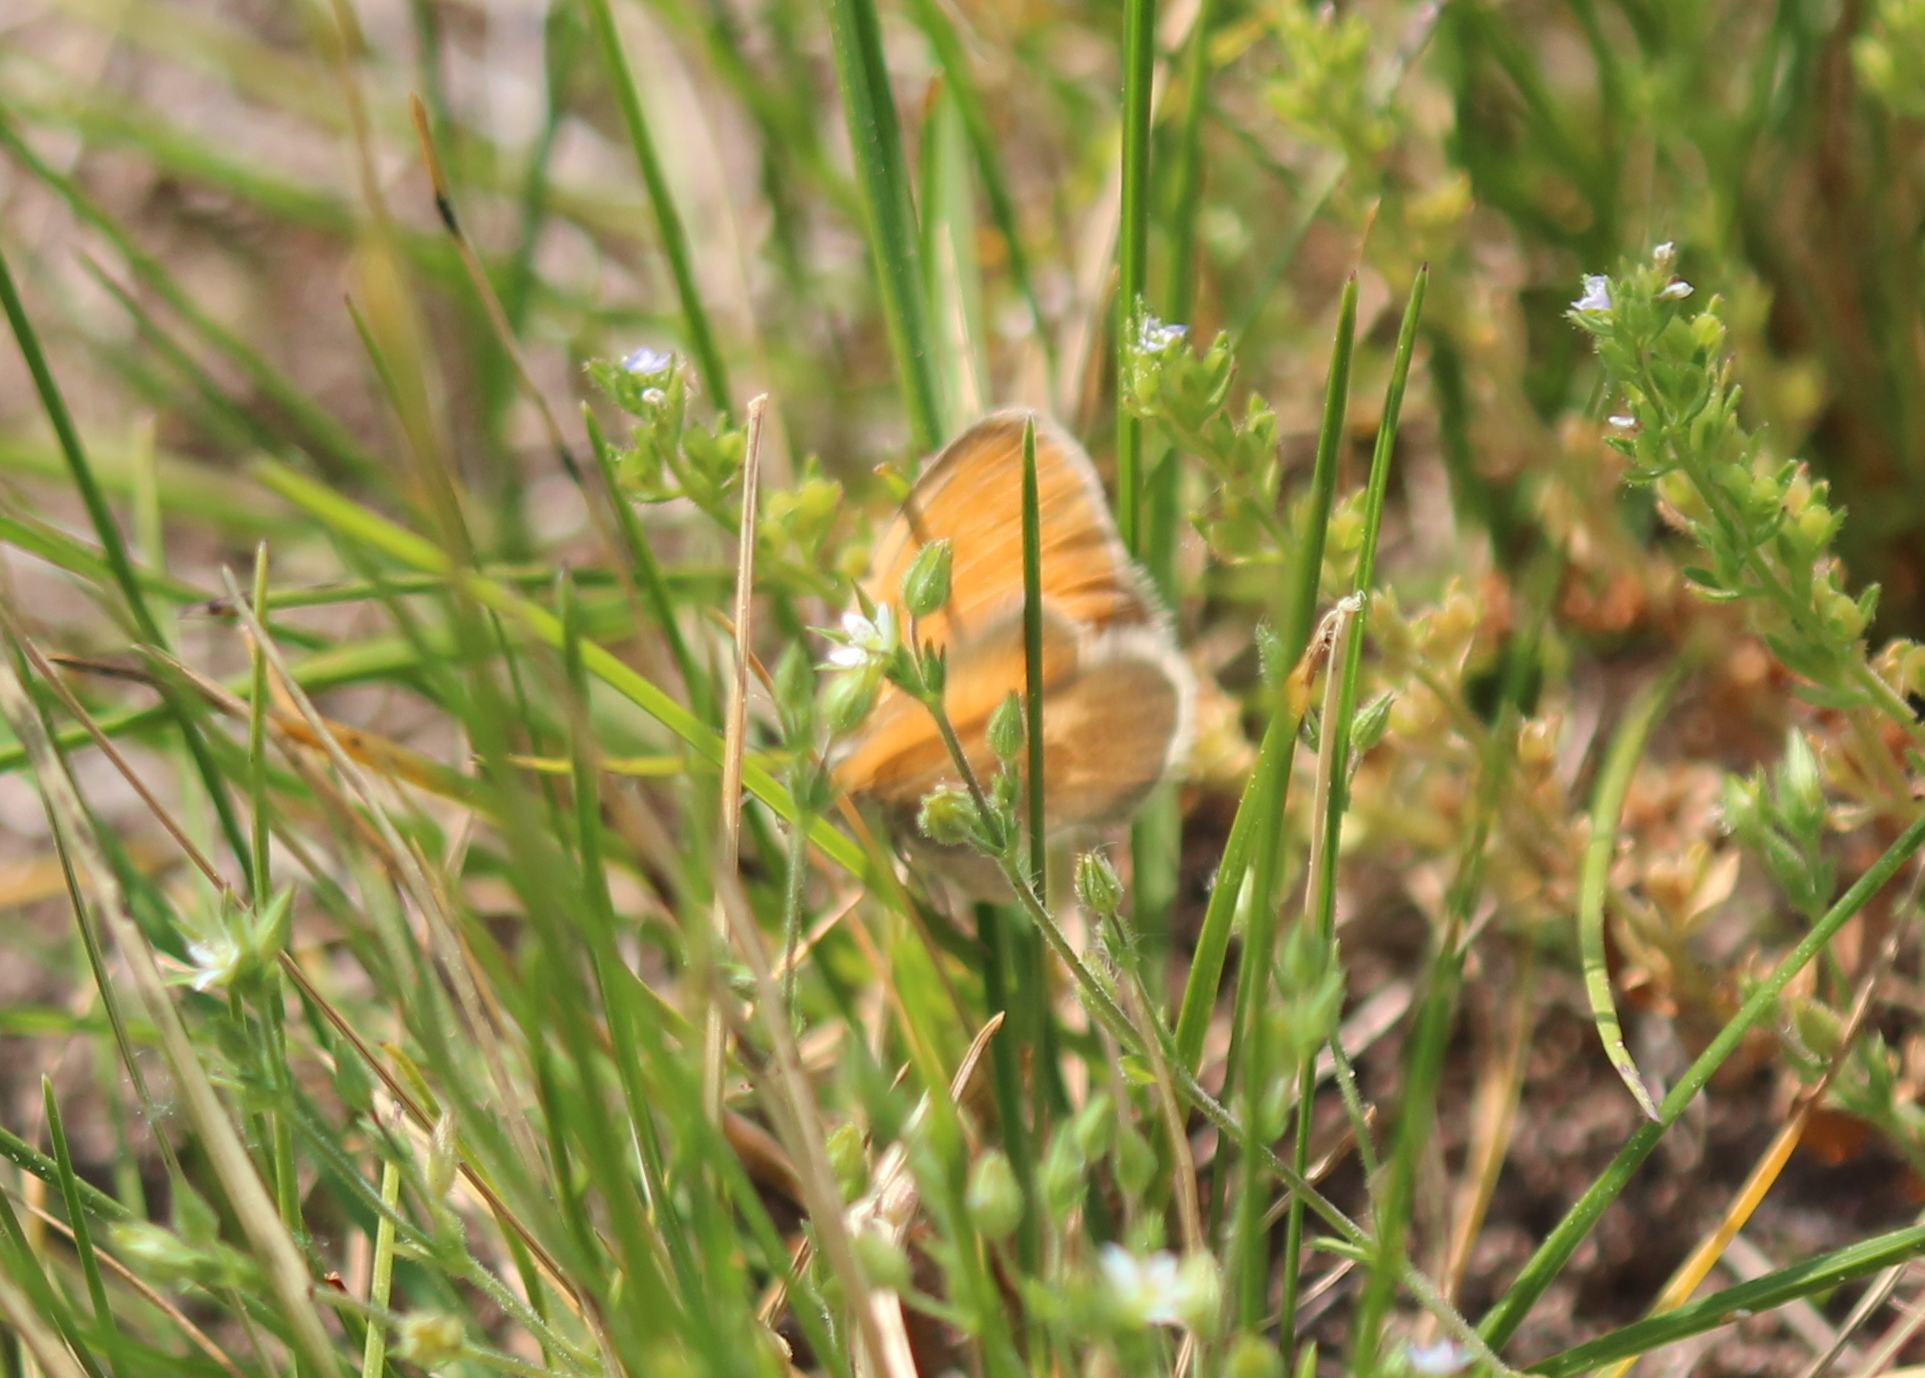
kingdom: Animalia
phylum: Arthropoda
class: Insecta
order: Lepidoptera
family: Nymphalidae
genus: Coenonympha
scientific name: Coenonympha california
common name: Common ringlet
